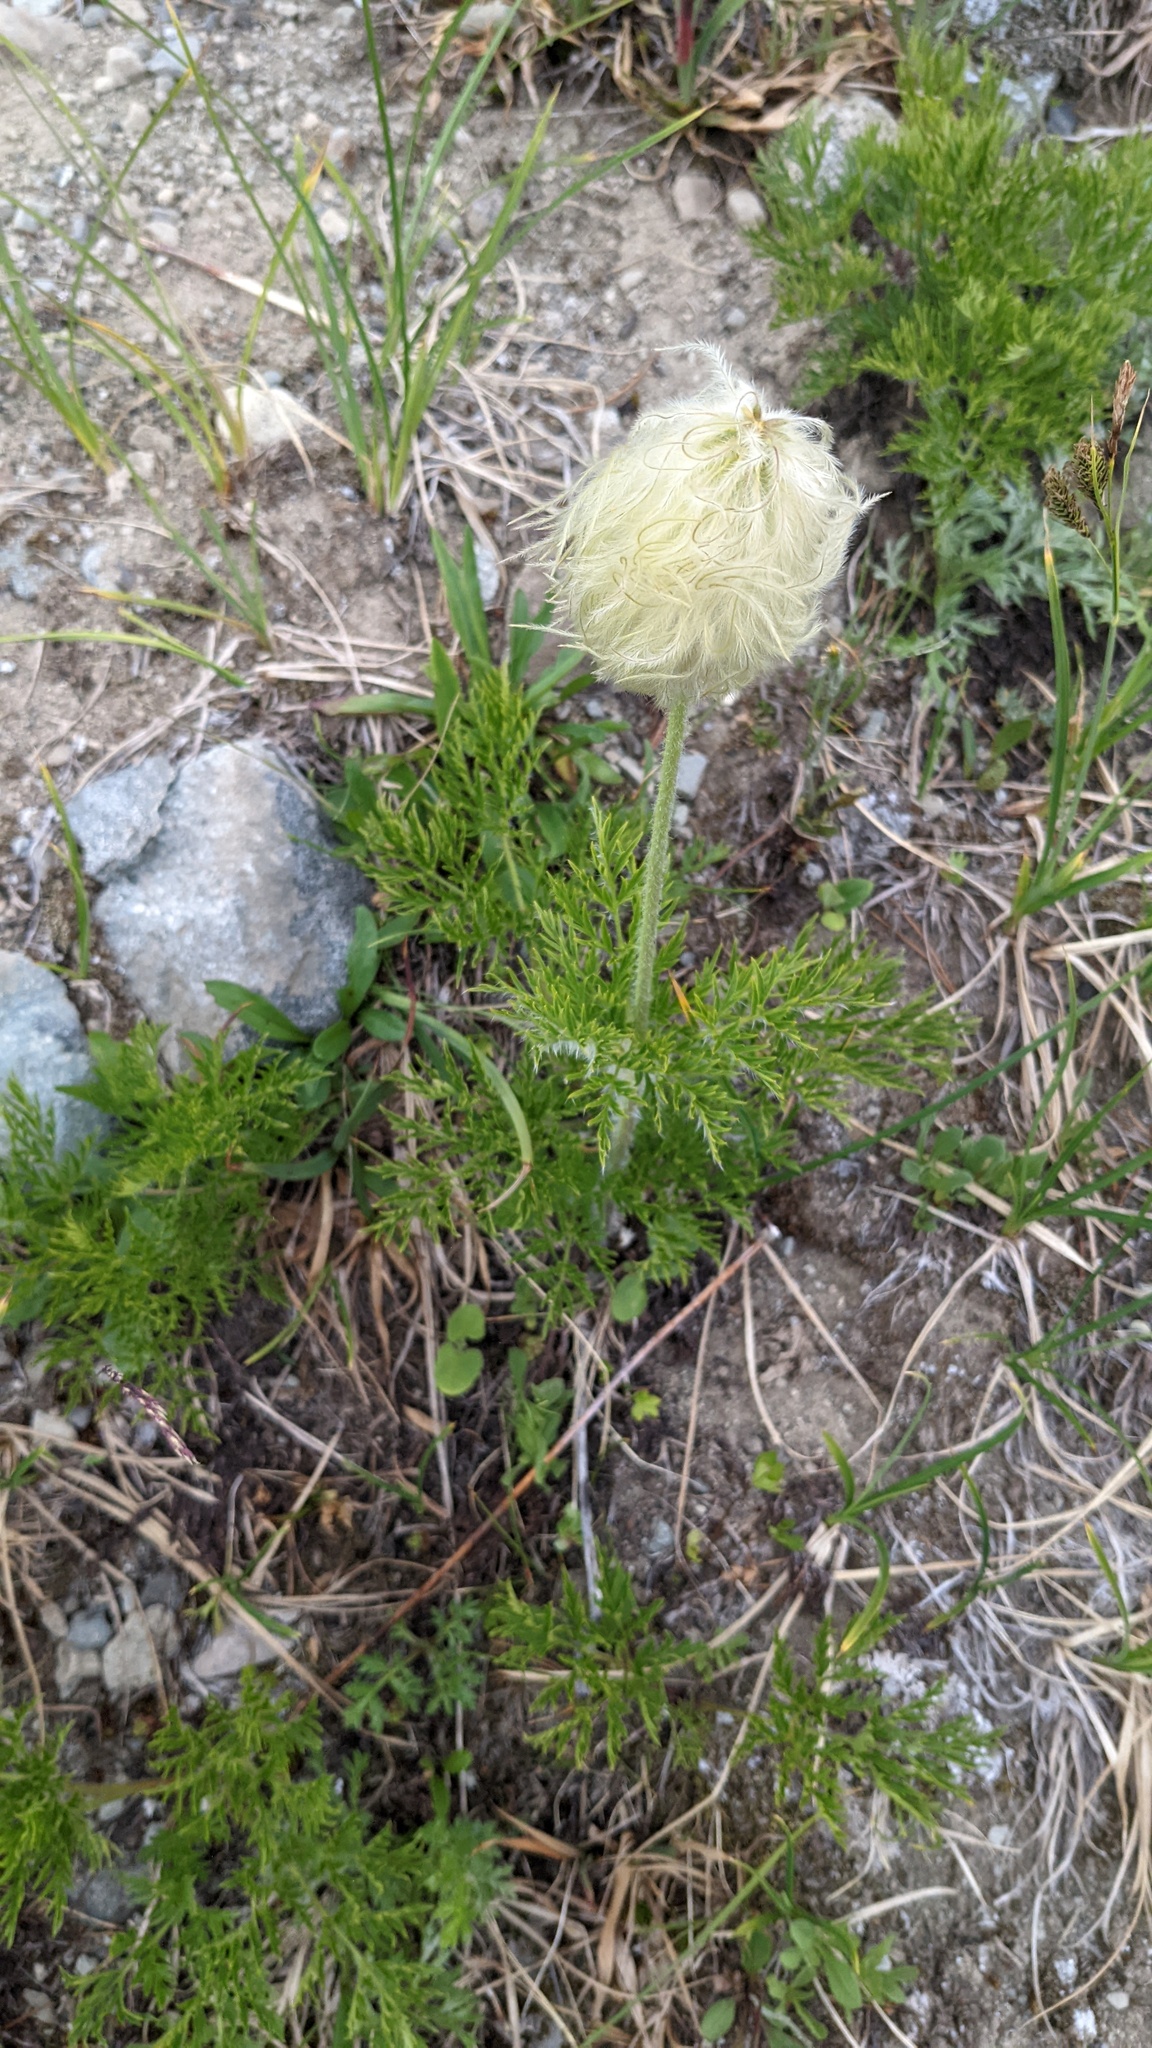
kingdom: Plantae
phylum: Tracheophyta
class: Magnoliopsida
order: Ranunculales
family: Ranunculaceae
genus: Pulsatilla
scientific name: Pulsatilla occidentalis
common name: Mountain pasqueflower
